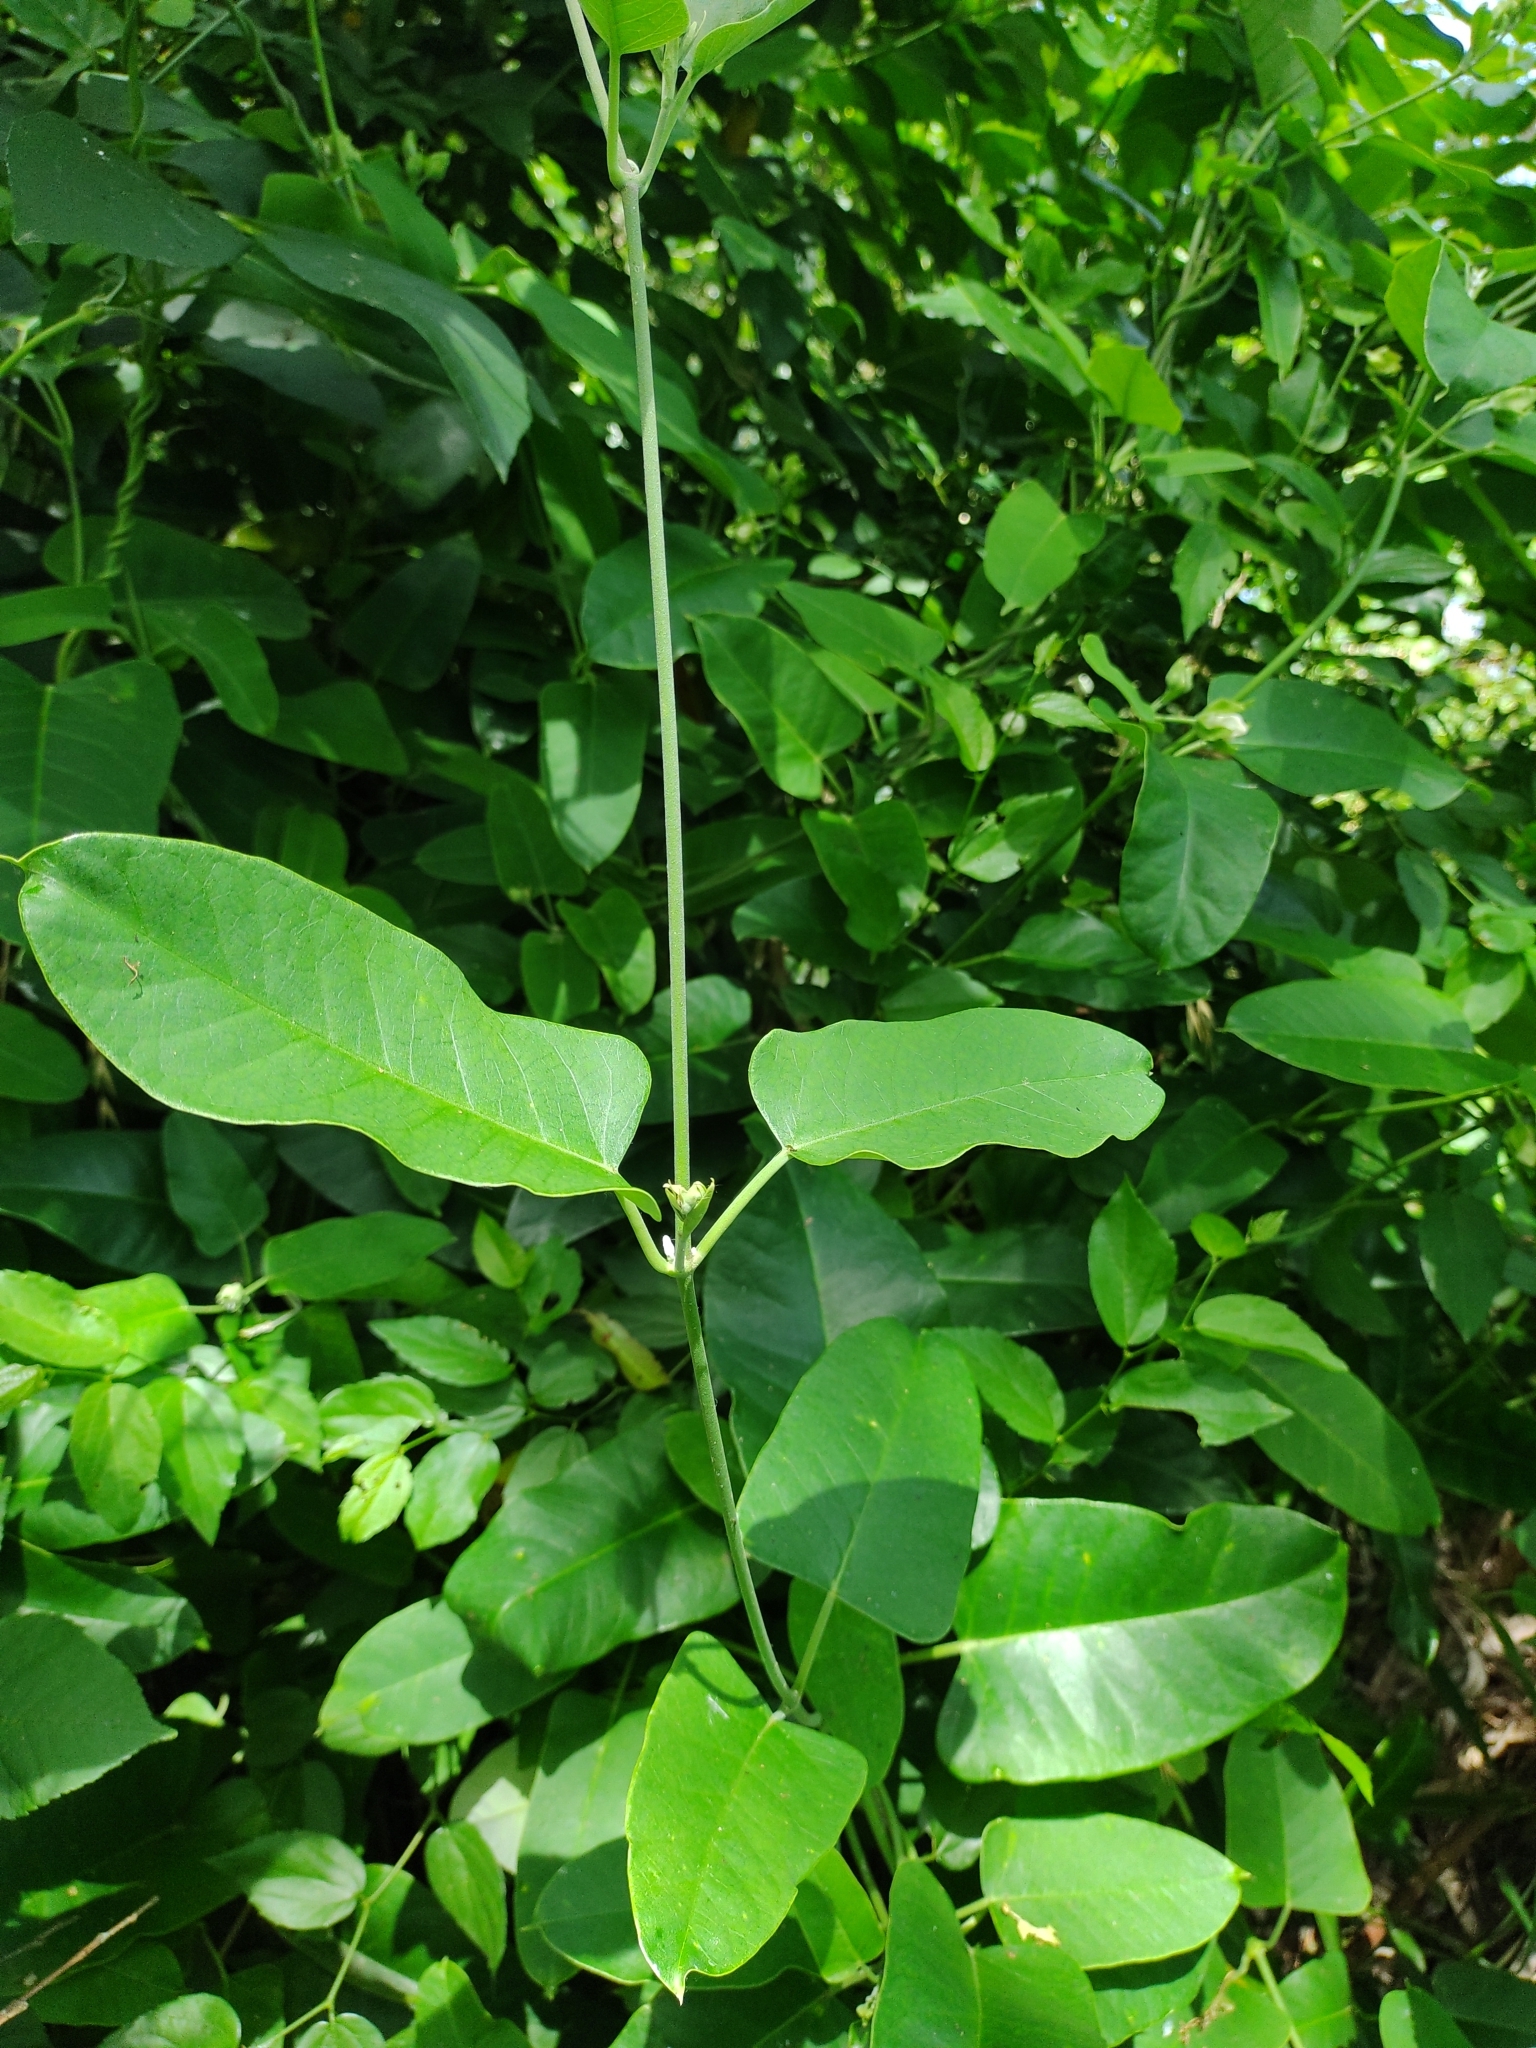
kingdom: Plantae
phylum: Tracheophyta
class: Magnoliopsida
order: Gentianales
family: Apocynaceae
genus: Araujia
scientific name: Araujia sericifera
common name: White bladderflower
